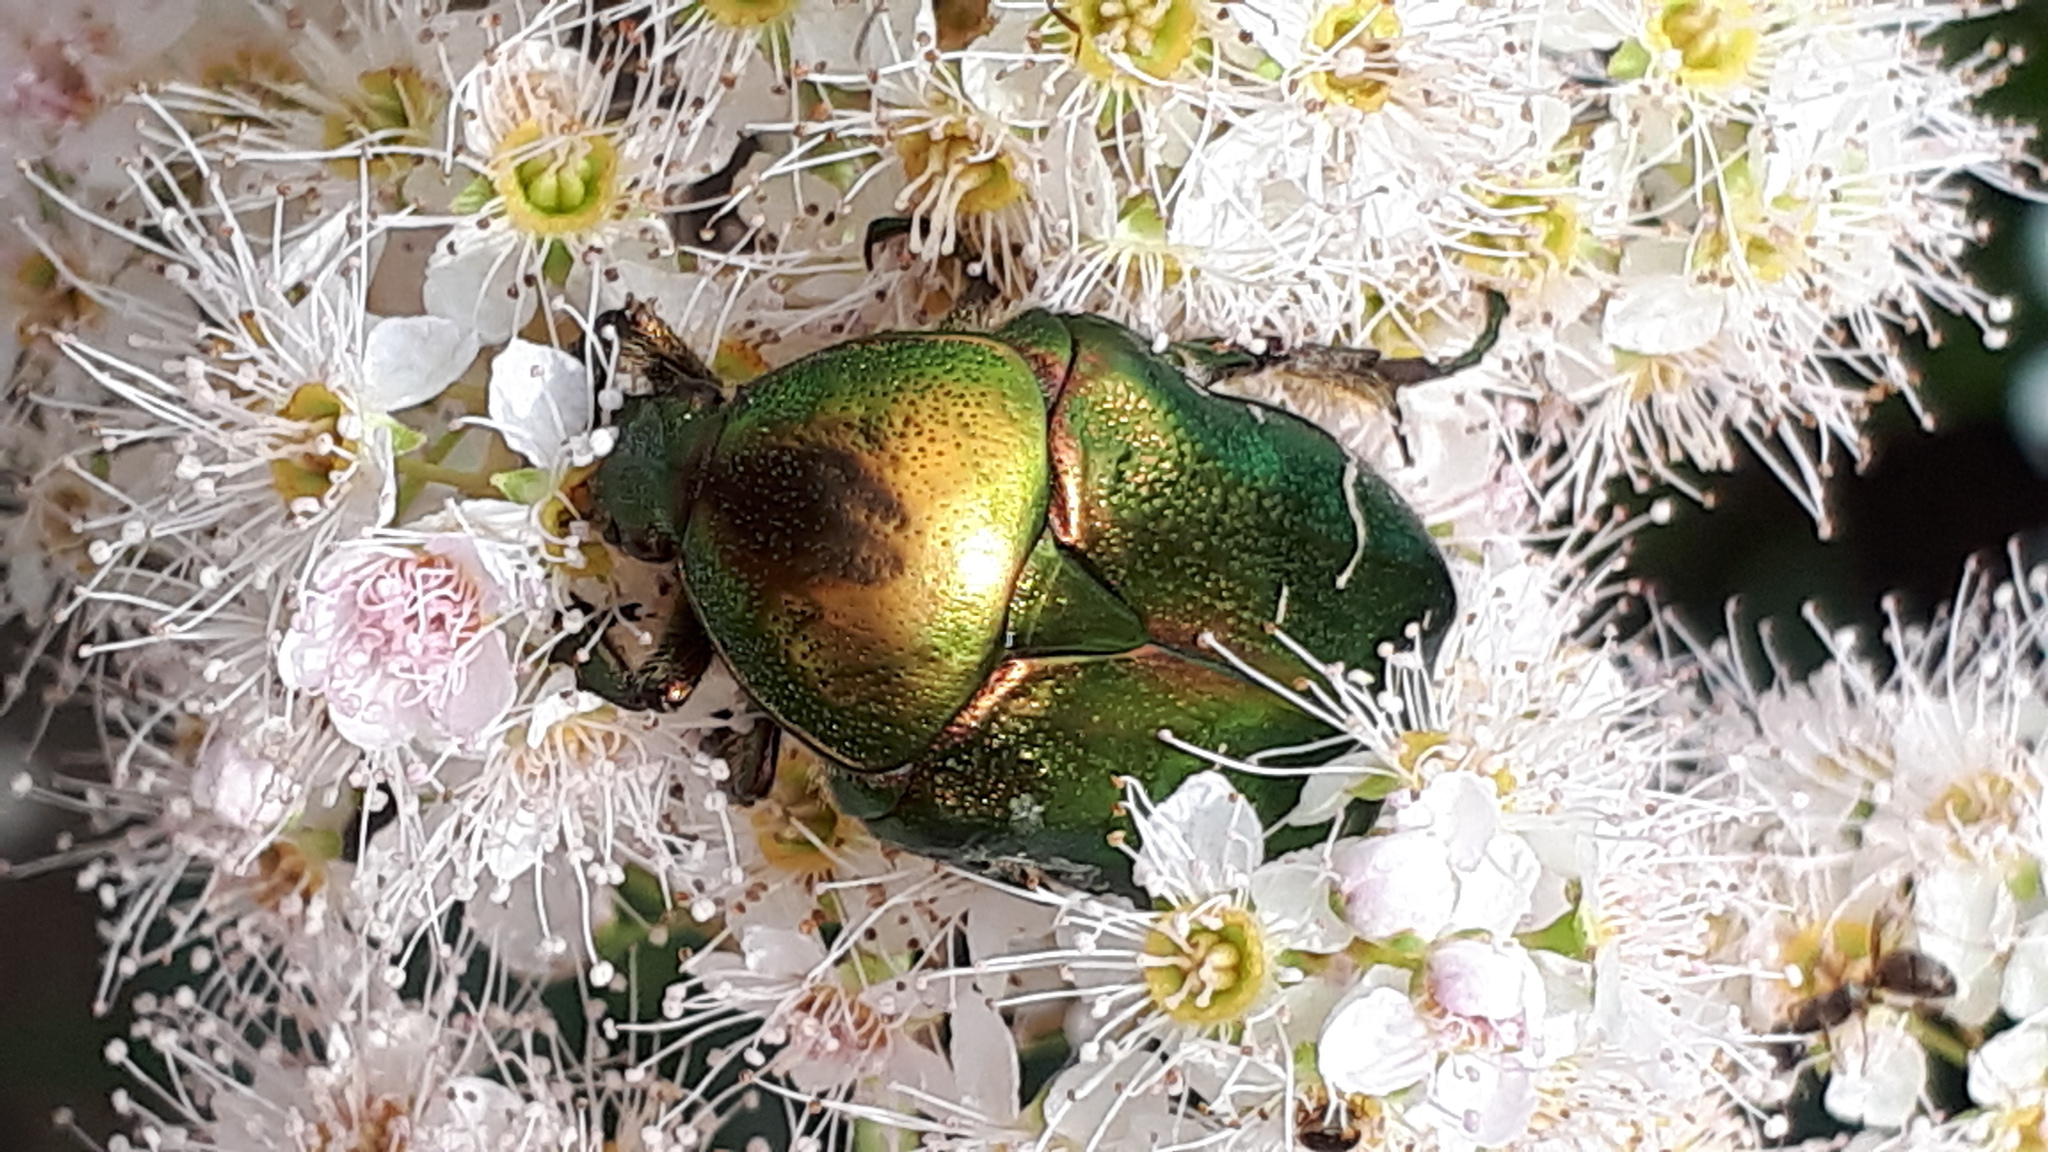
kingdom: Animalia
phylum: Arthropoda
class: Insecta
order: Coleoptera
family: Scarabaeidae
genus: Cetonia
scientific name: Cetonia aurata
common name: Rose chafer
